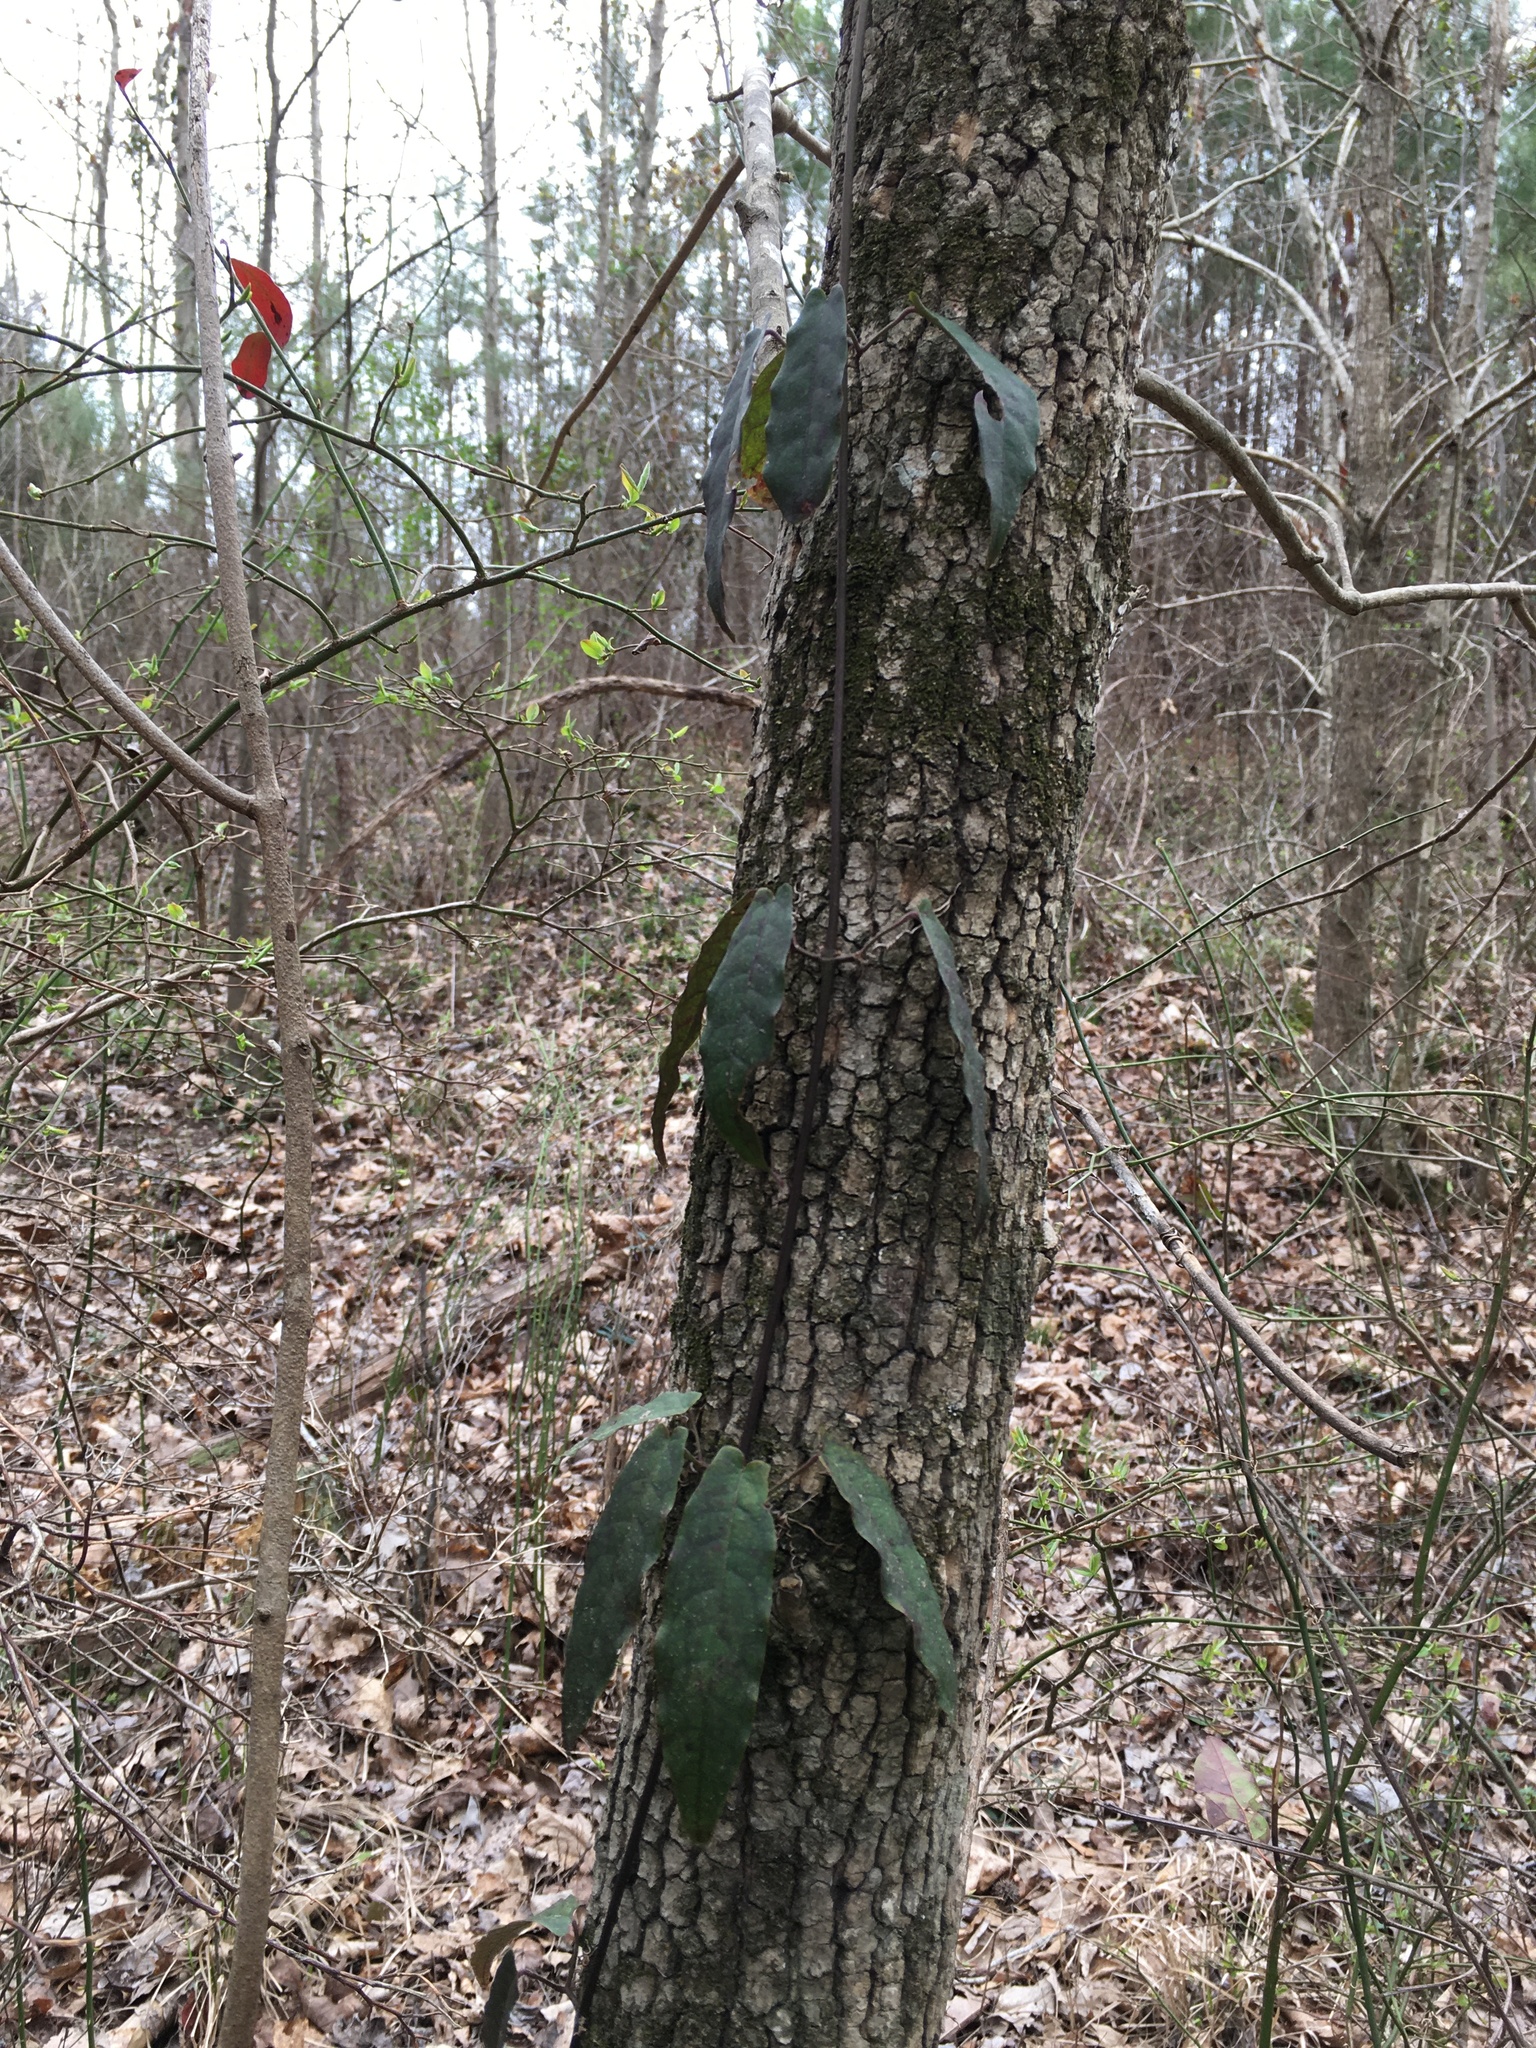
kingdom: Plantae
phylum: Tracheophyta
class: Magnoliopsida
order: Lamiales
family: Bignoniaceae
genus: Bignonia
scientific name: Bignonia capreolata
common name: Crossvine
